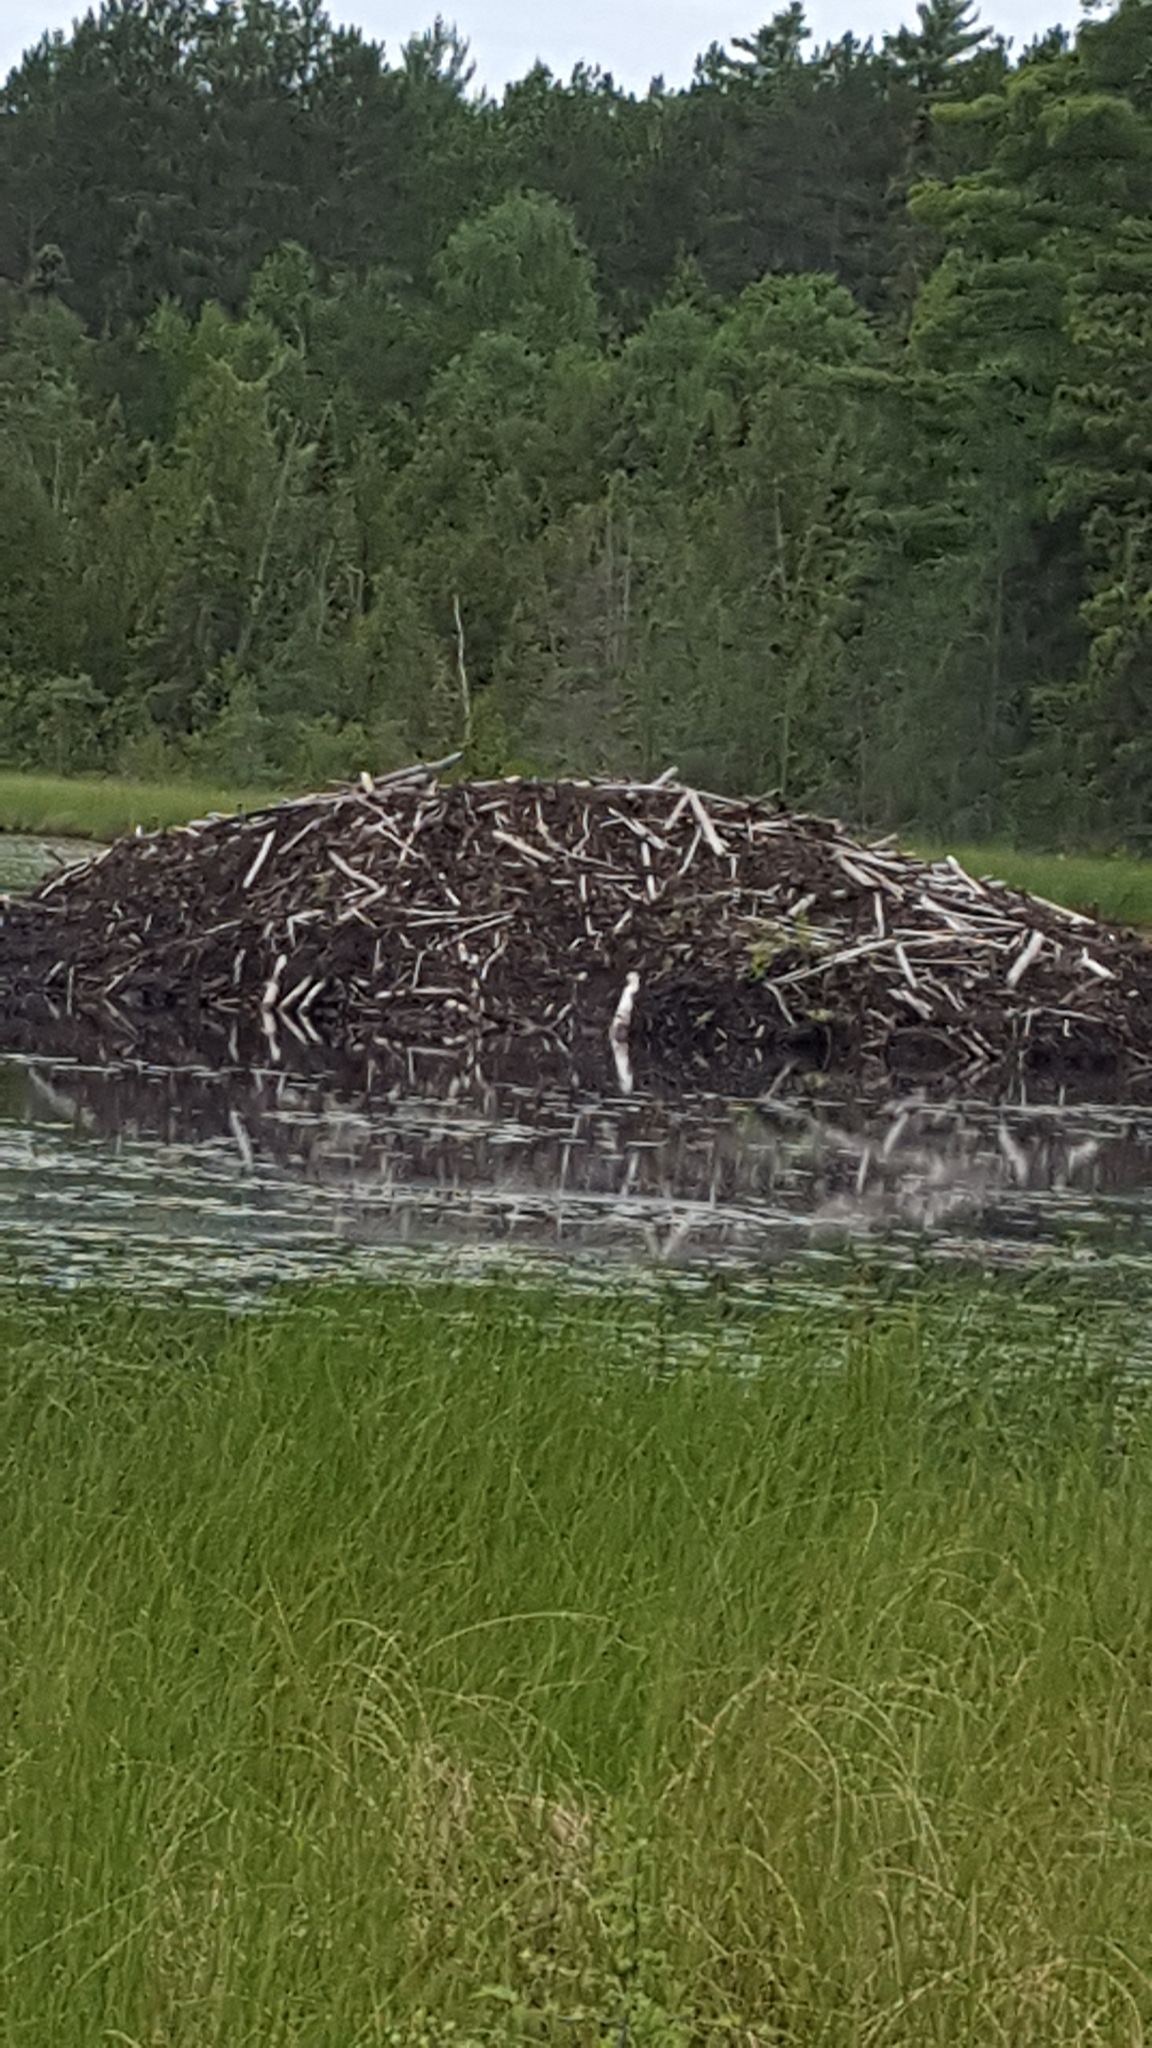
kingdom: Animalia
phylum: Chordata
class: Mammalia
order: Rodentia
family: Castoridae
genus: Castor
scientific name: Castor canadensis
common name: American beaver
